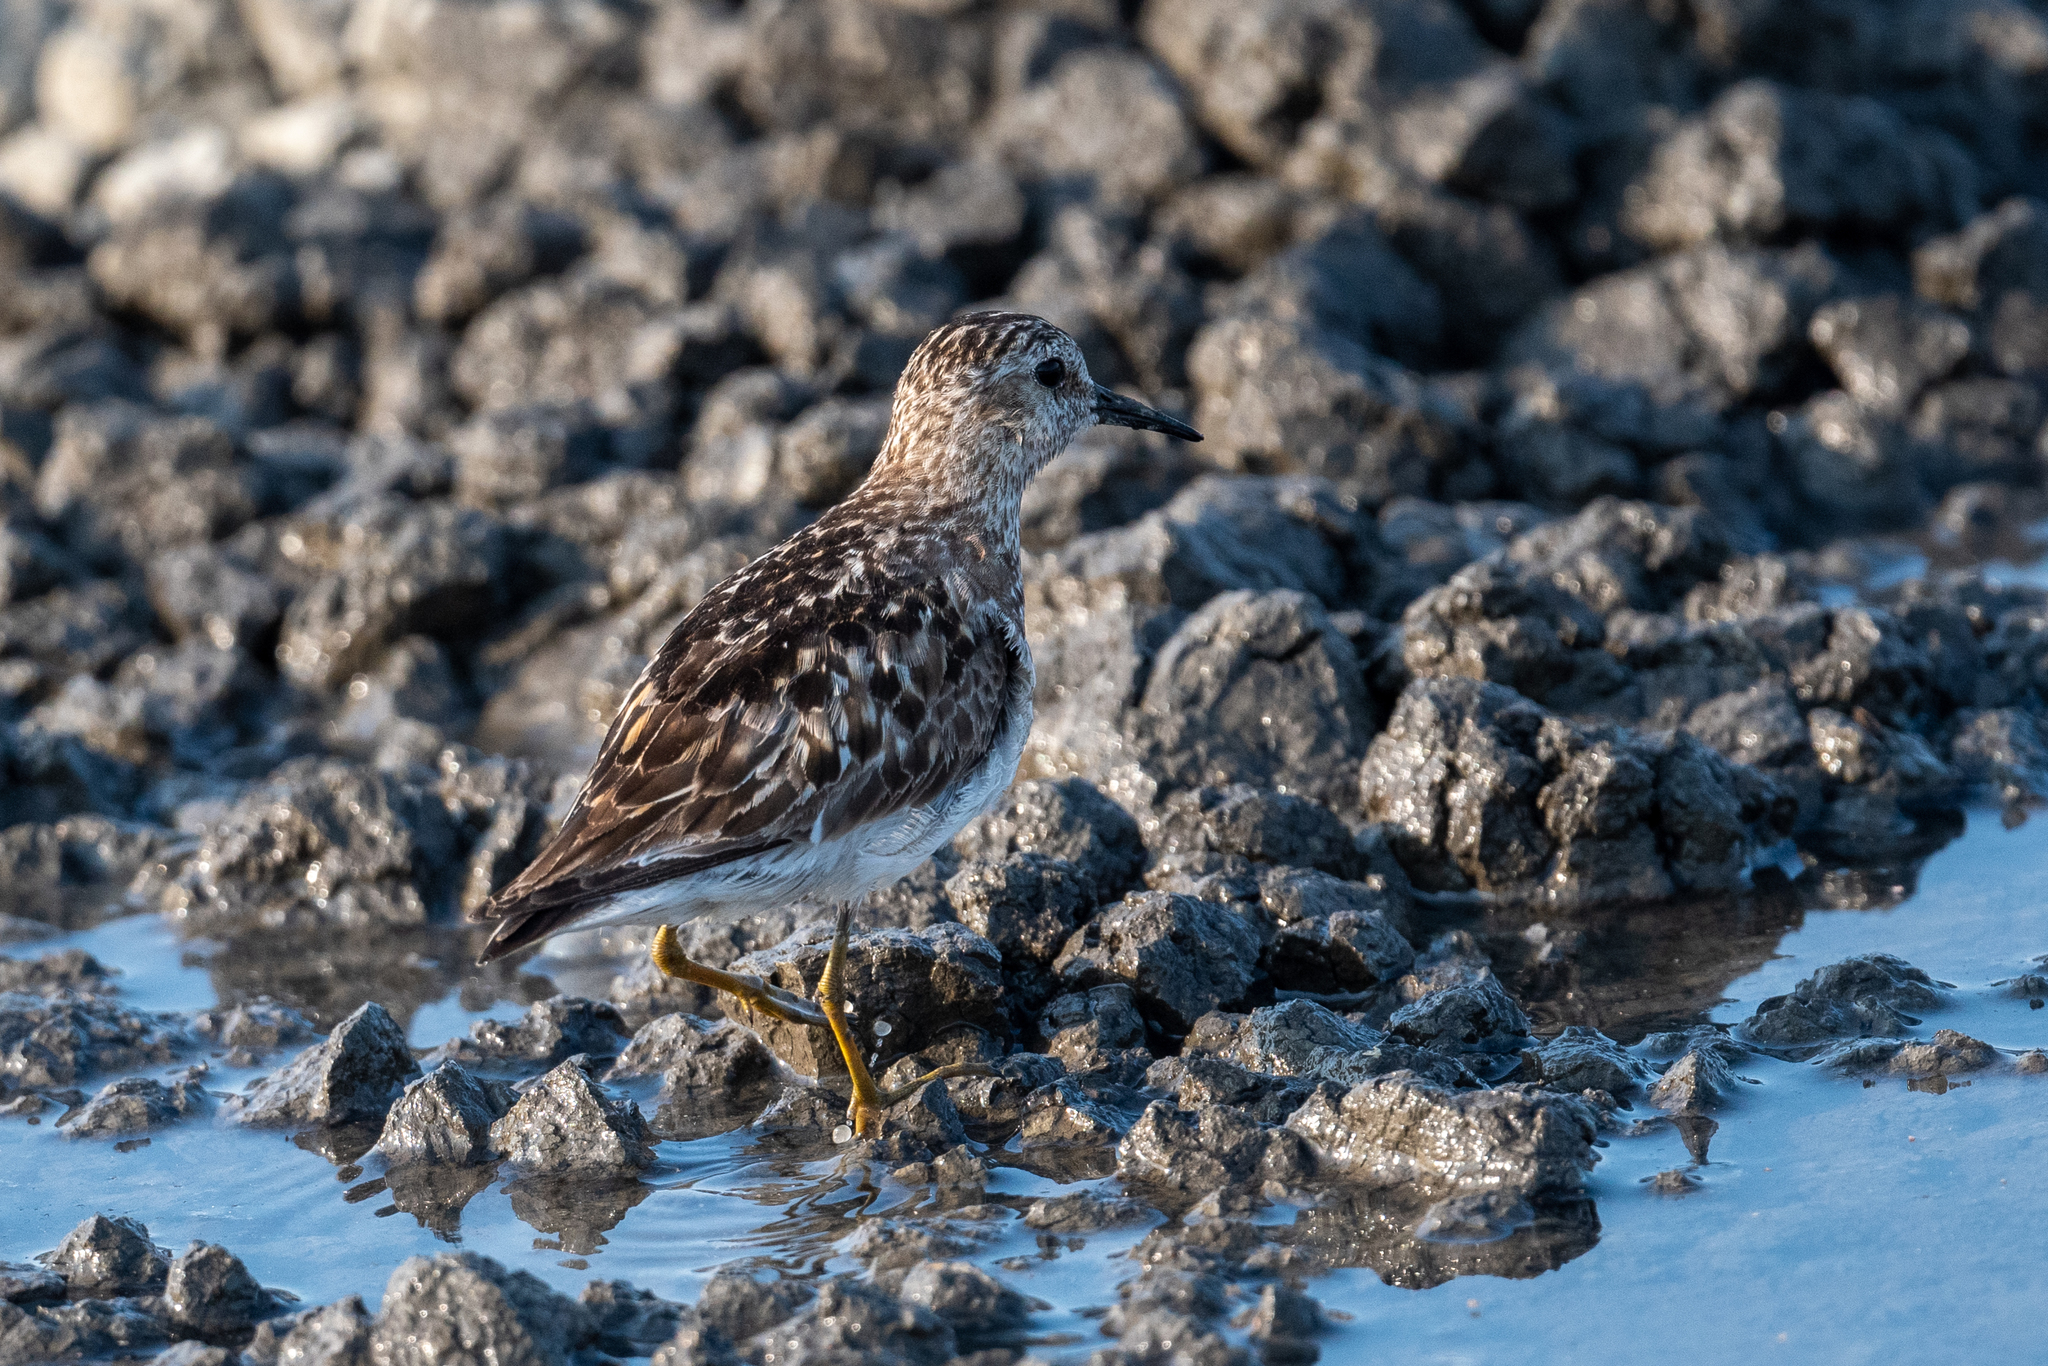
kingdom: Animalia
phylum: Chordata
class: Aves
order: Charadriiformes
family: Scolopacidae
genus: Calidris
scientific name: Calidris minutilla
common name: Least sandpiper
